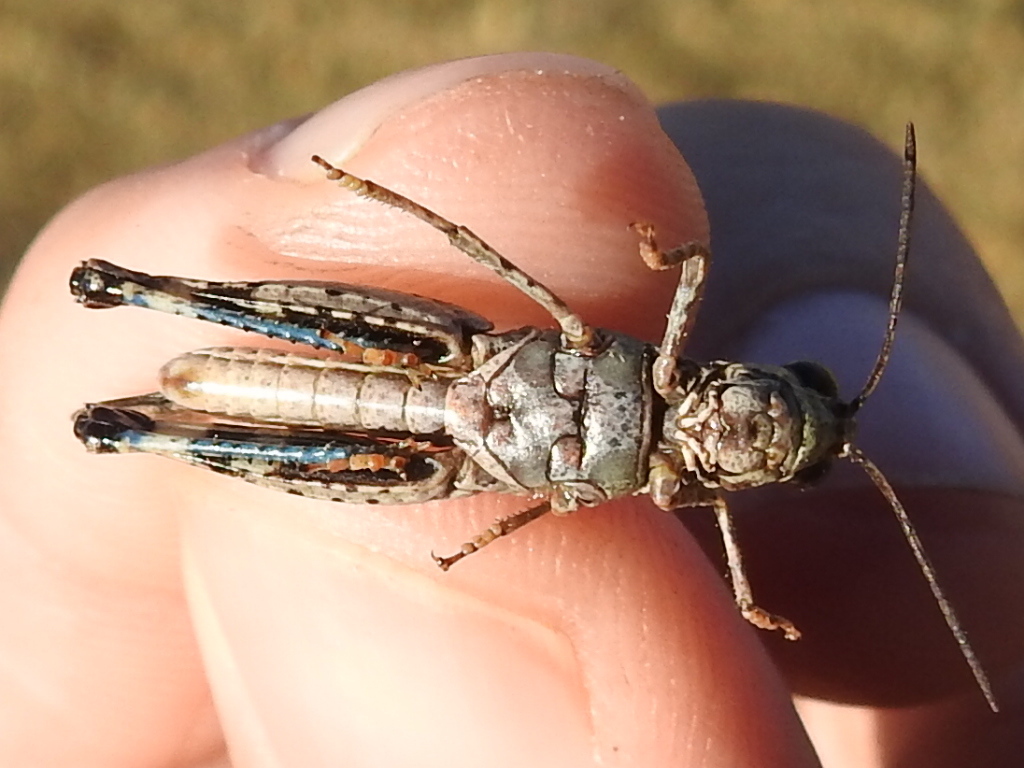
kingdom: Animalia
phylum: Arthropoda
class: Insecta
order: Orthoptera
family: Acrididae
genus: Nebulatettix
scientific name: Nebulatettix subgracilis
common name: Southwestern dusky grasshopper
